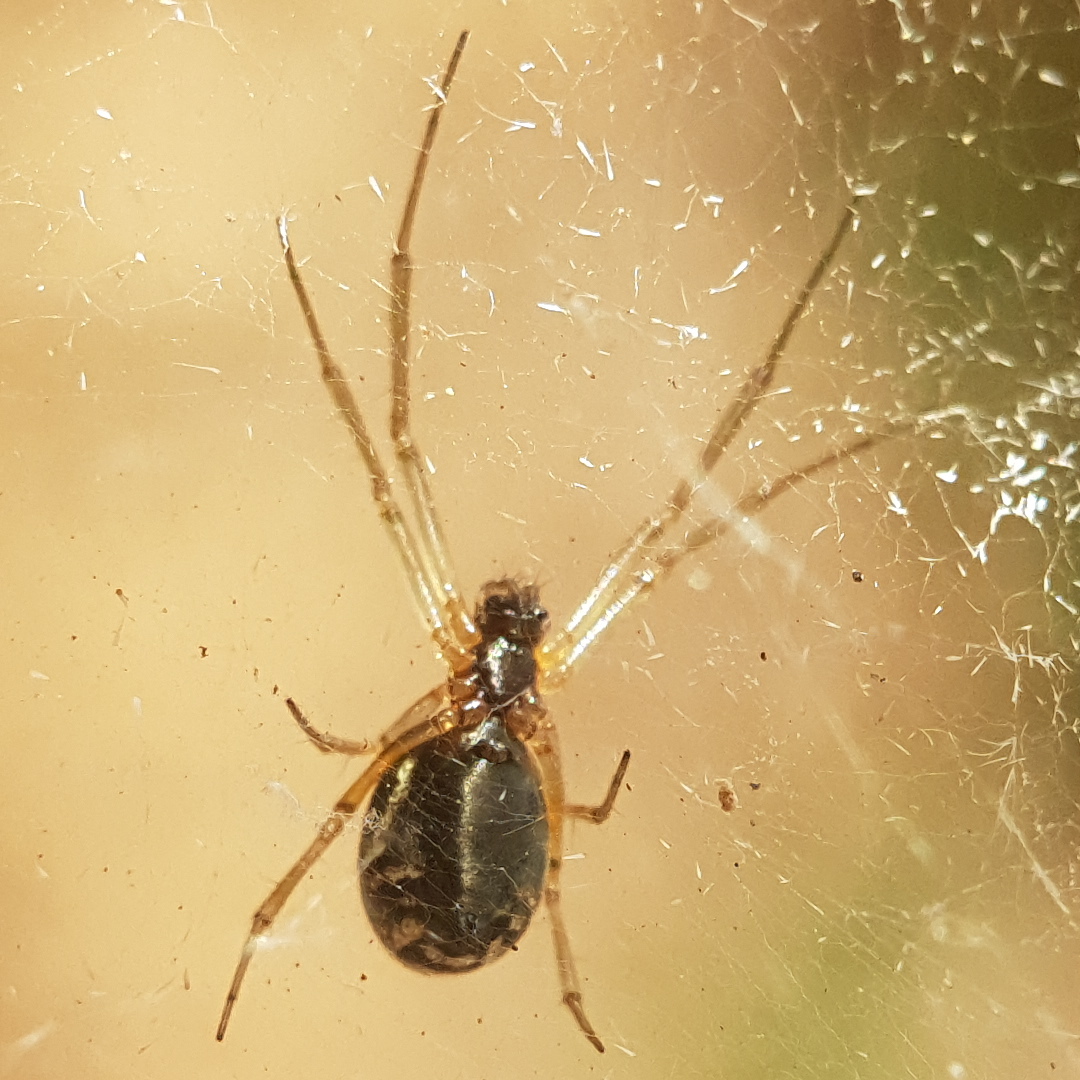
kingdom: Animalia
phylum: Arthropoda
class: Arachnida
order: Araneae
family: Linyphiidae
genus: Frontinellina
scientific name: Frontinellina frutetorum
